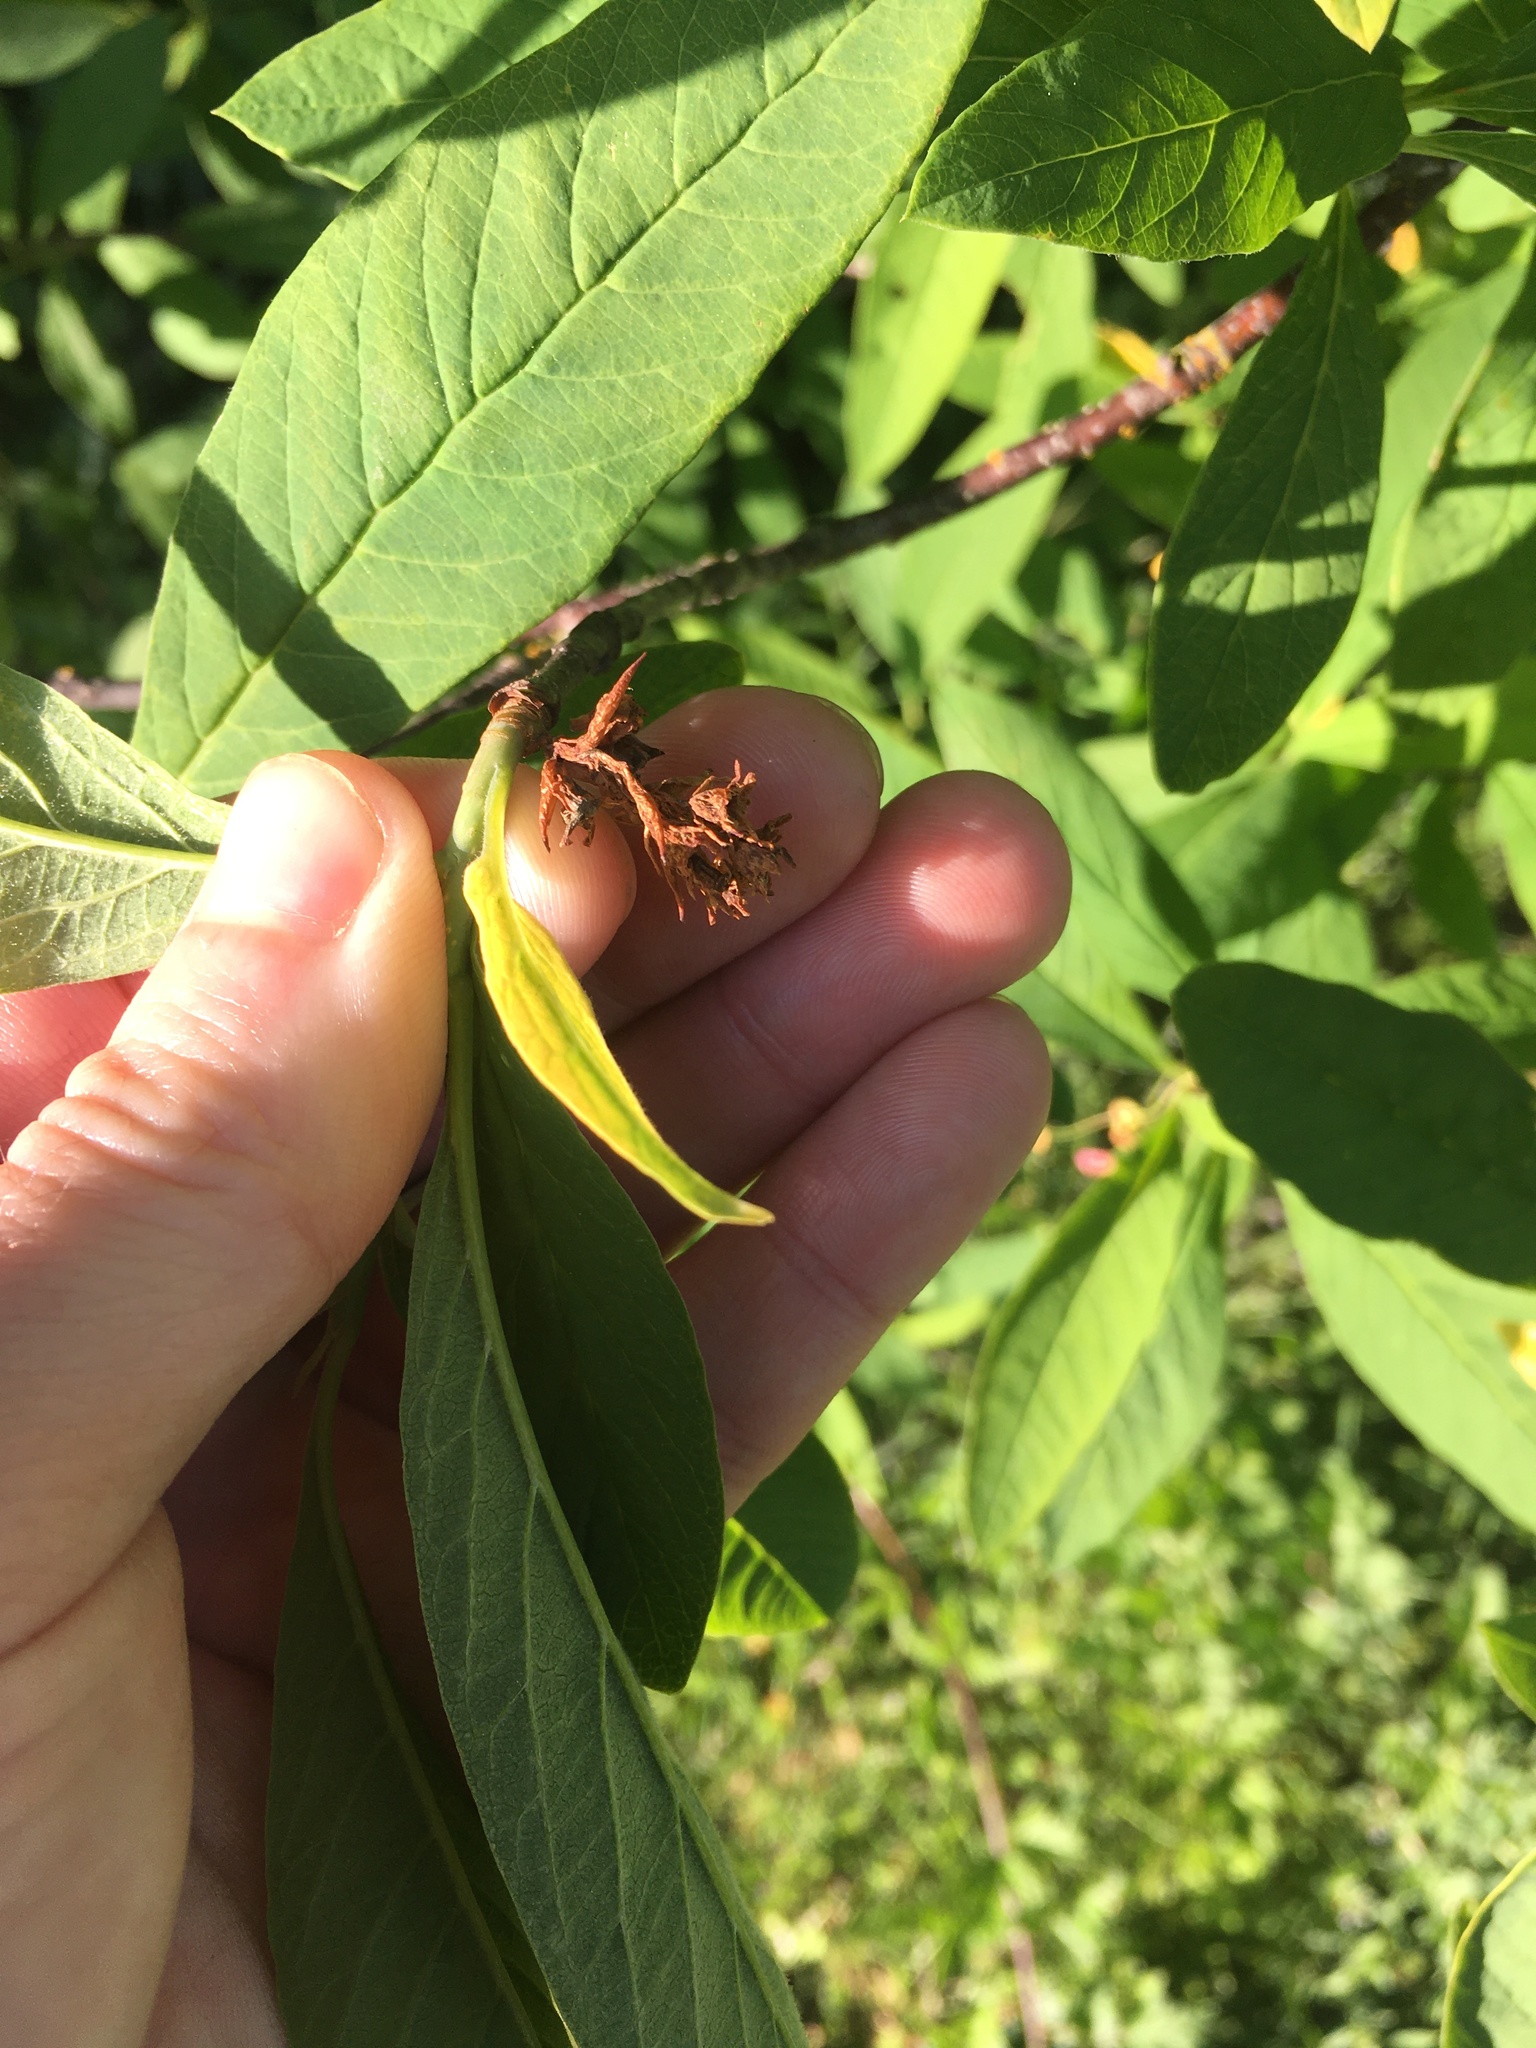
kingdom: Plantae
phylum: Tracheophyta
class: Magnoliopsida
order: Rosales
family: Rosaceae
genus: Oemleria
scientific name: Oemleria cerasiformis
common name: Osoberry
